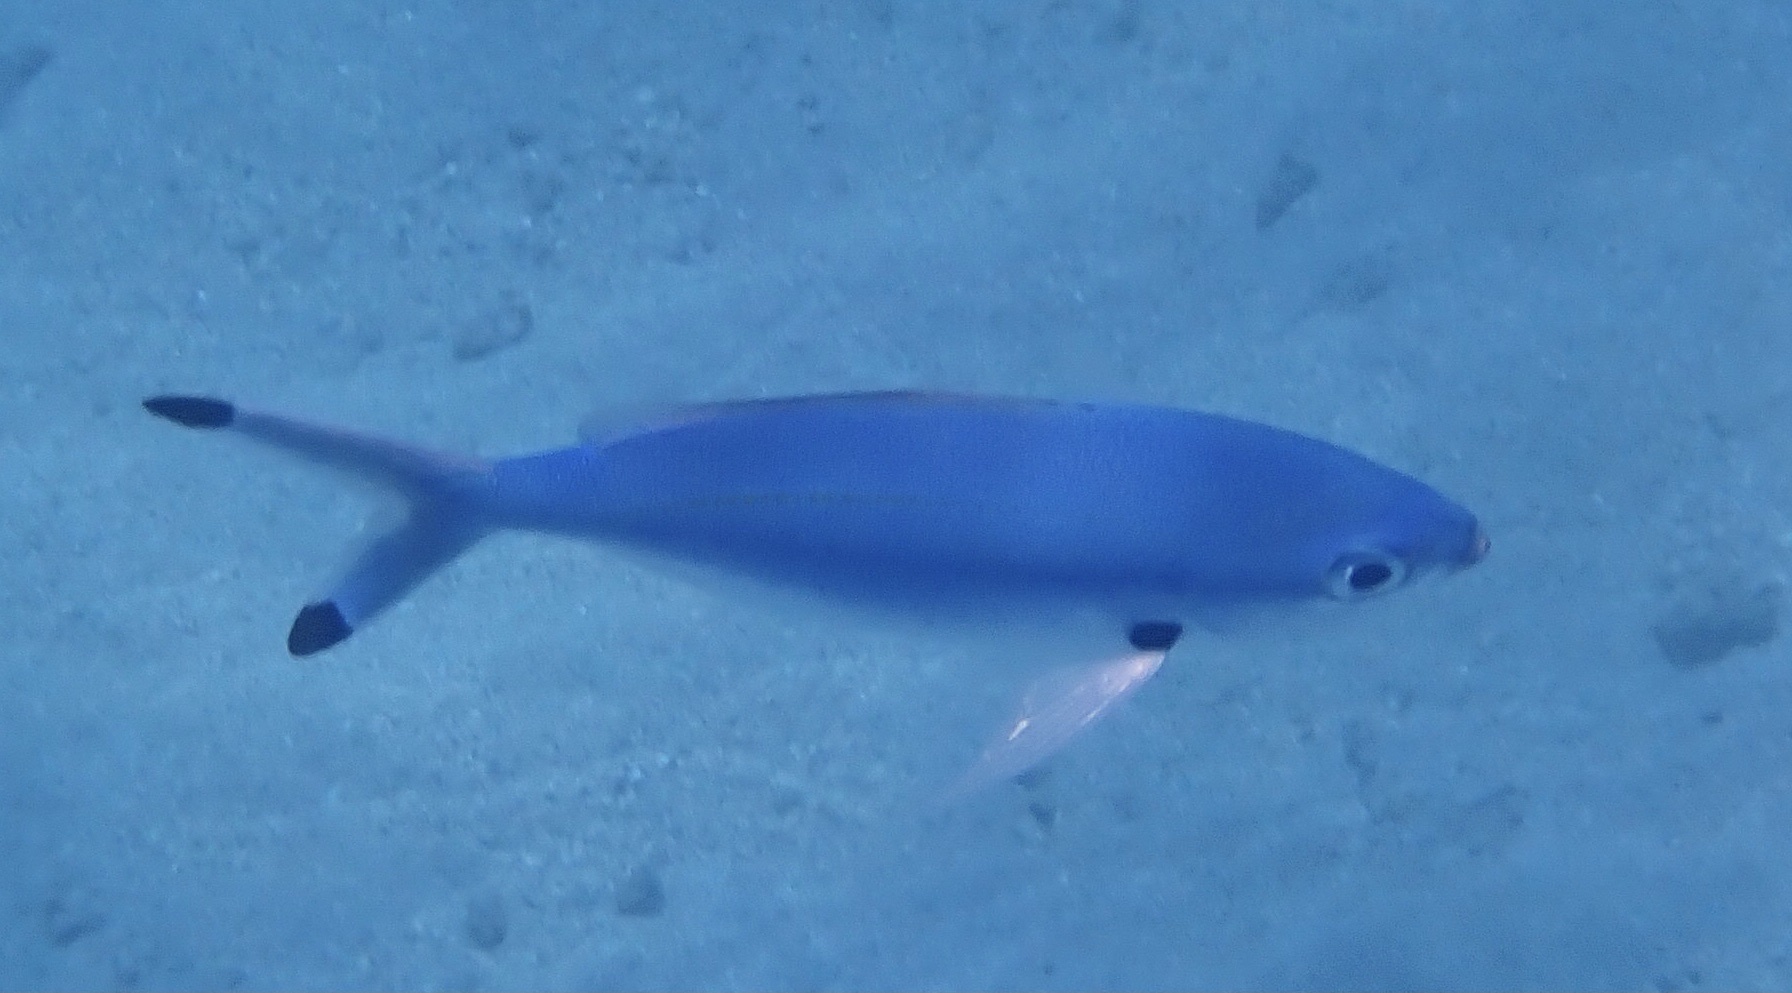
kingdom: Animalia
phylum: Chordata
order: Perciformes
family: Caesionidae
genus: Caesio
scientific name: Caesio lunaris
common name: Blue fusilier
